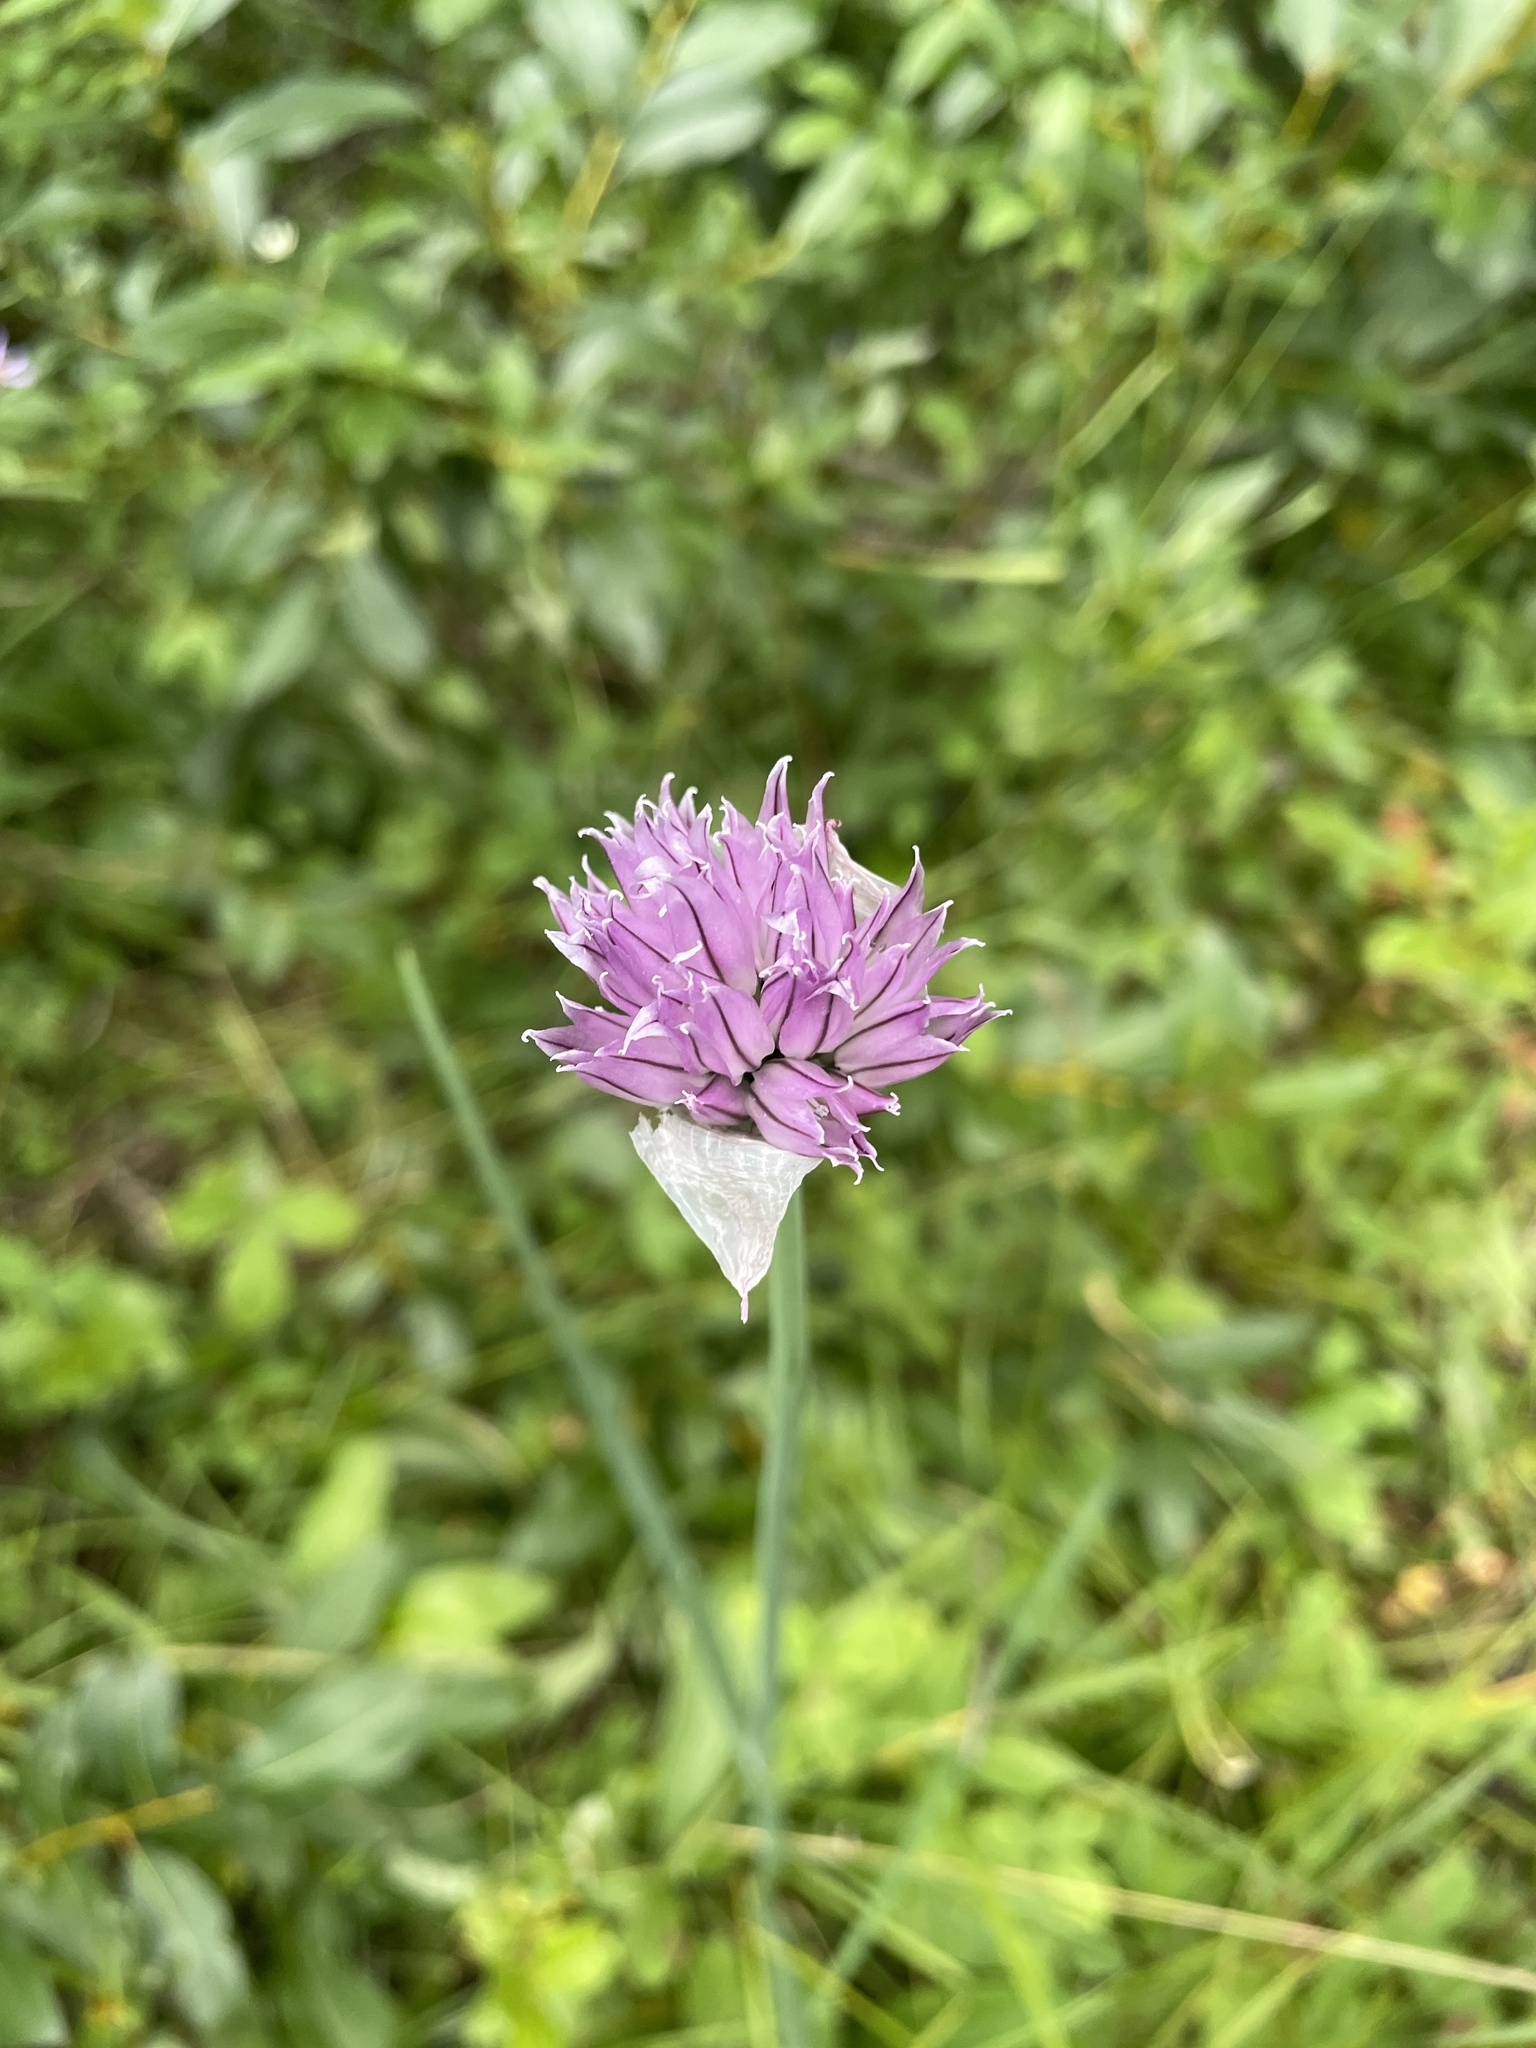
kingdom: Plantae
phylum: Tracheophyta
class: Liliopsida
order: Asparagales
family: Amaryllidaceae
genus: Allium
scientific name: Allium schoenoprasum
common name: Chives
